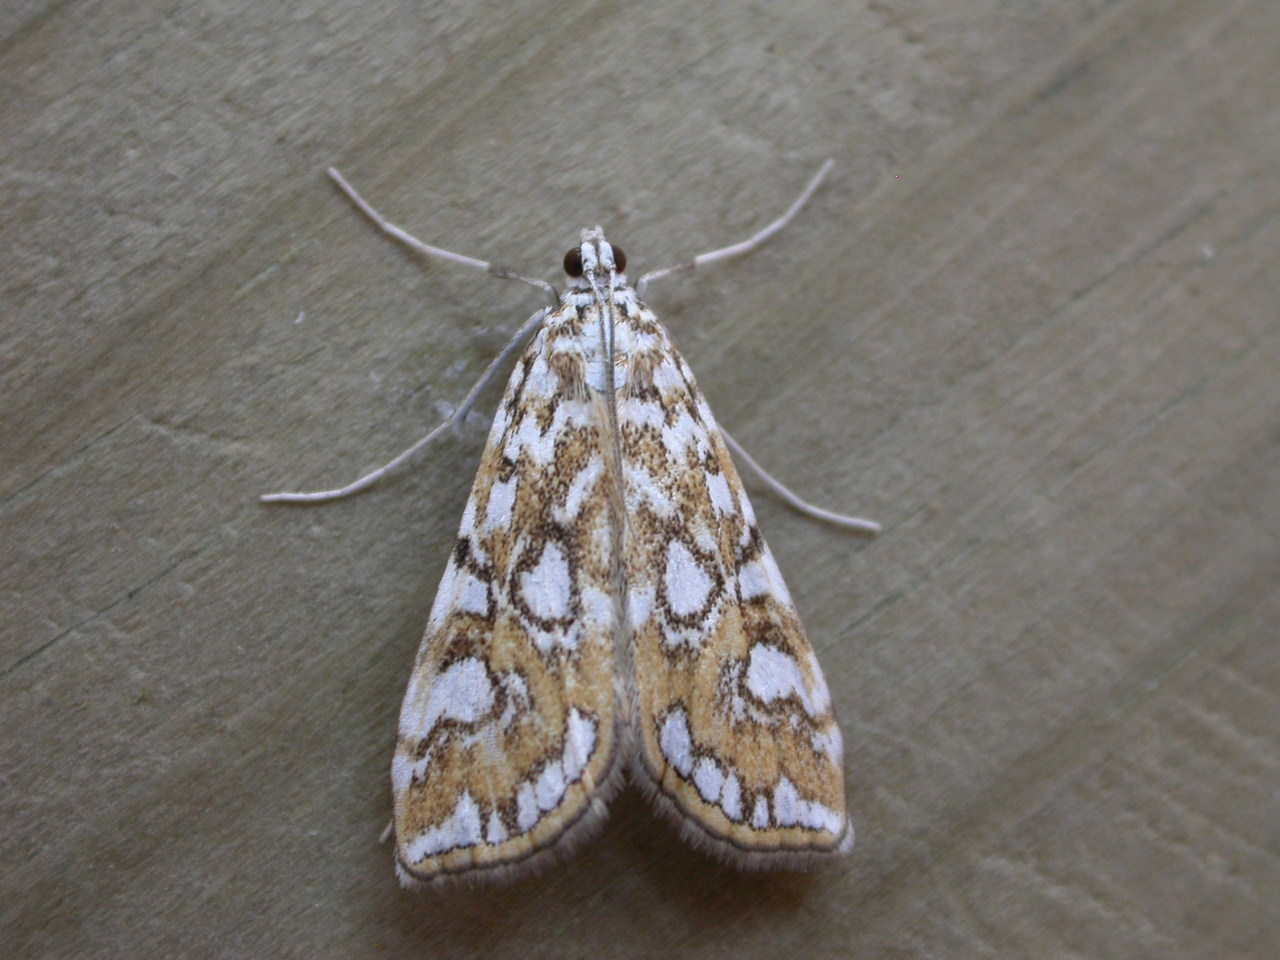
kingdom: Animalia
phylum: Arthropoda
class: Insecta
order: Lepidoptera
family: Crambidae
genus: Elophila
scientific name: Elophila nymphaeata
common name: Brown china-mark
